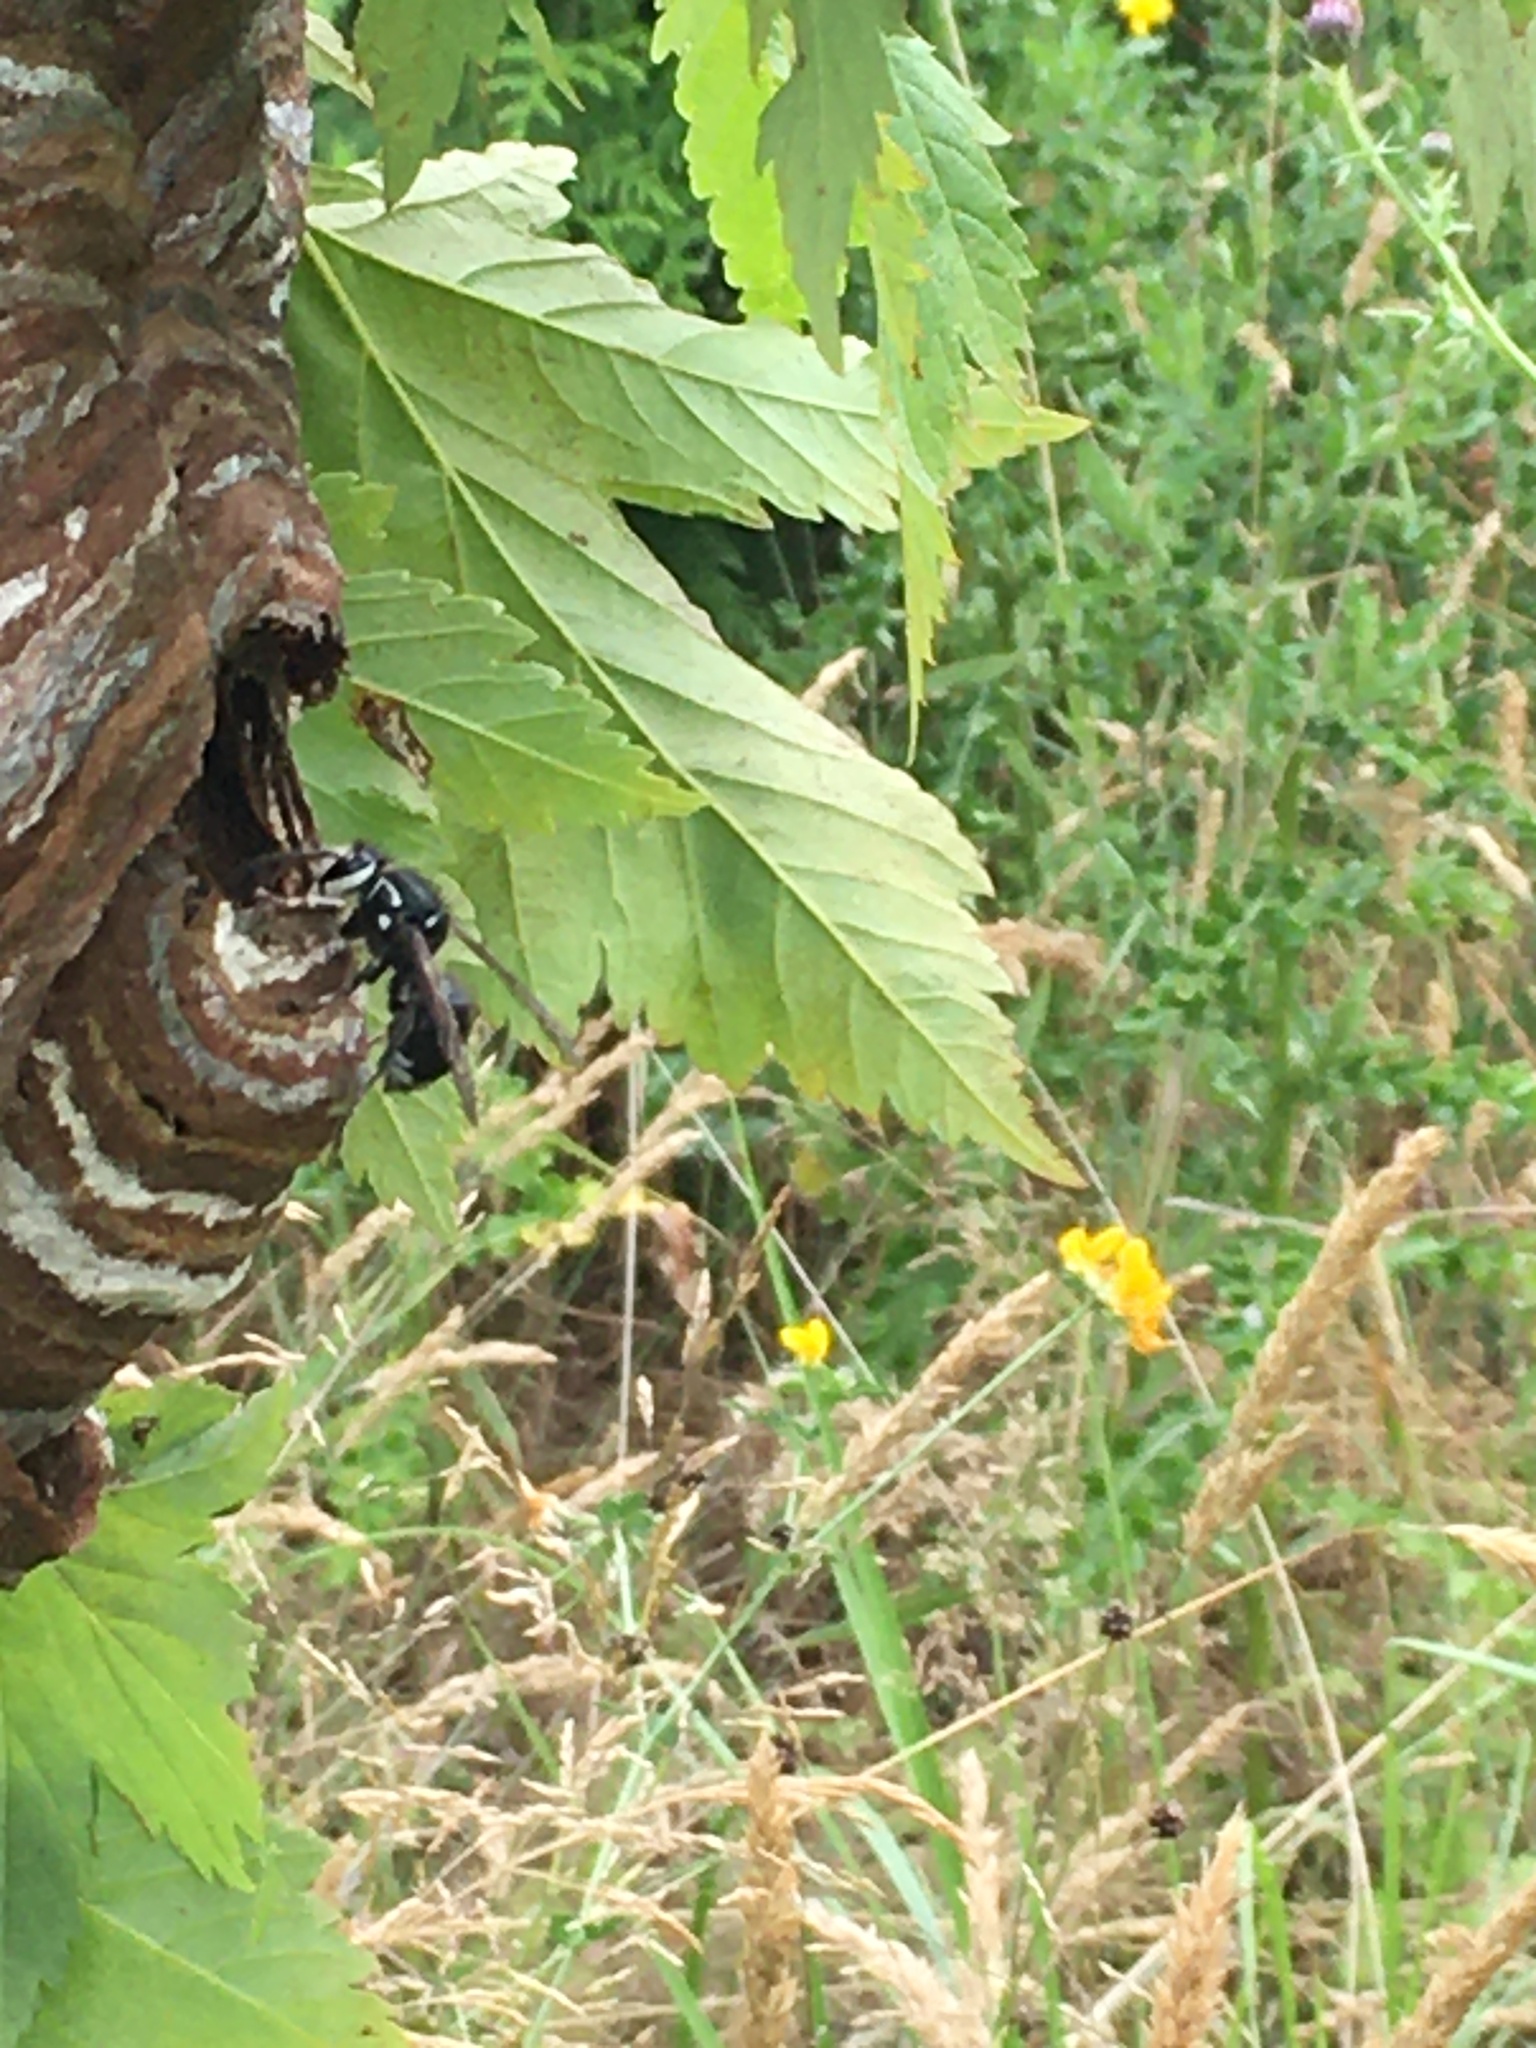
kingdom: Animalia
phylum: Arthropoda
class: Insecta
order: Hymenoptera
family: Vespidae
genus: Dolichovespula
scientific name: Dolichovespula maculata
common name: Bald-faced hornet
